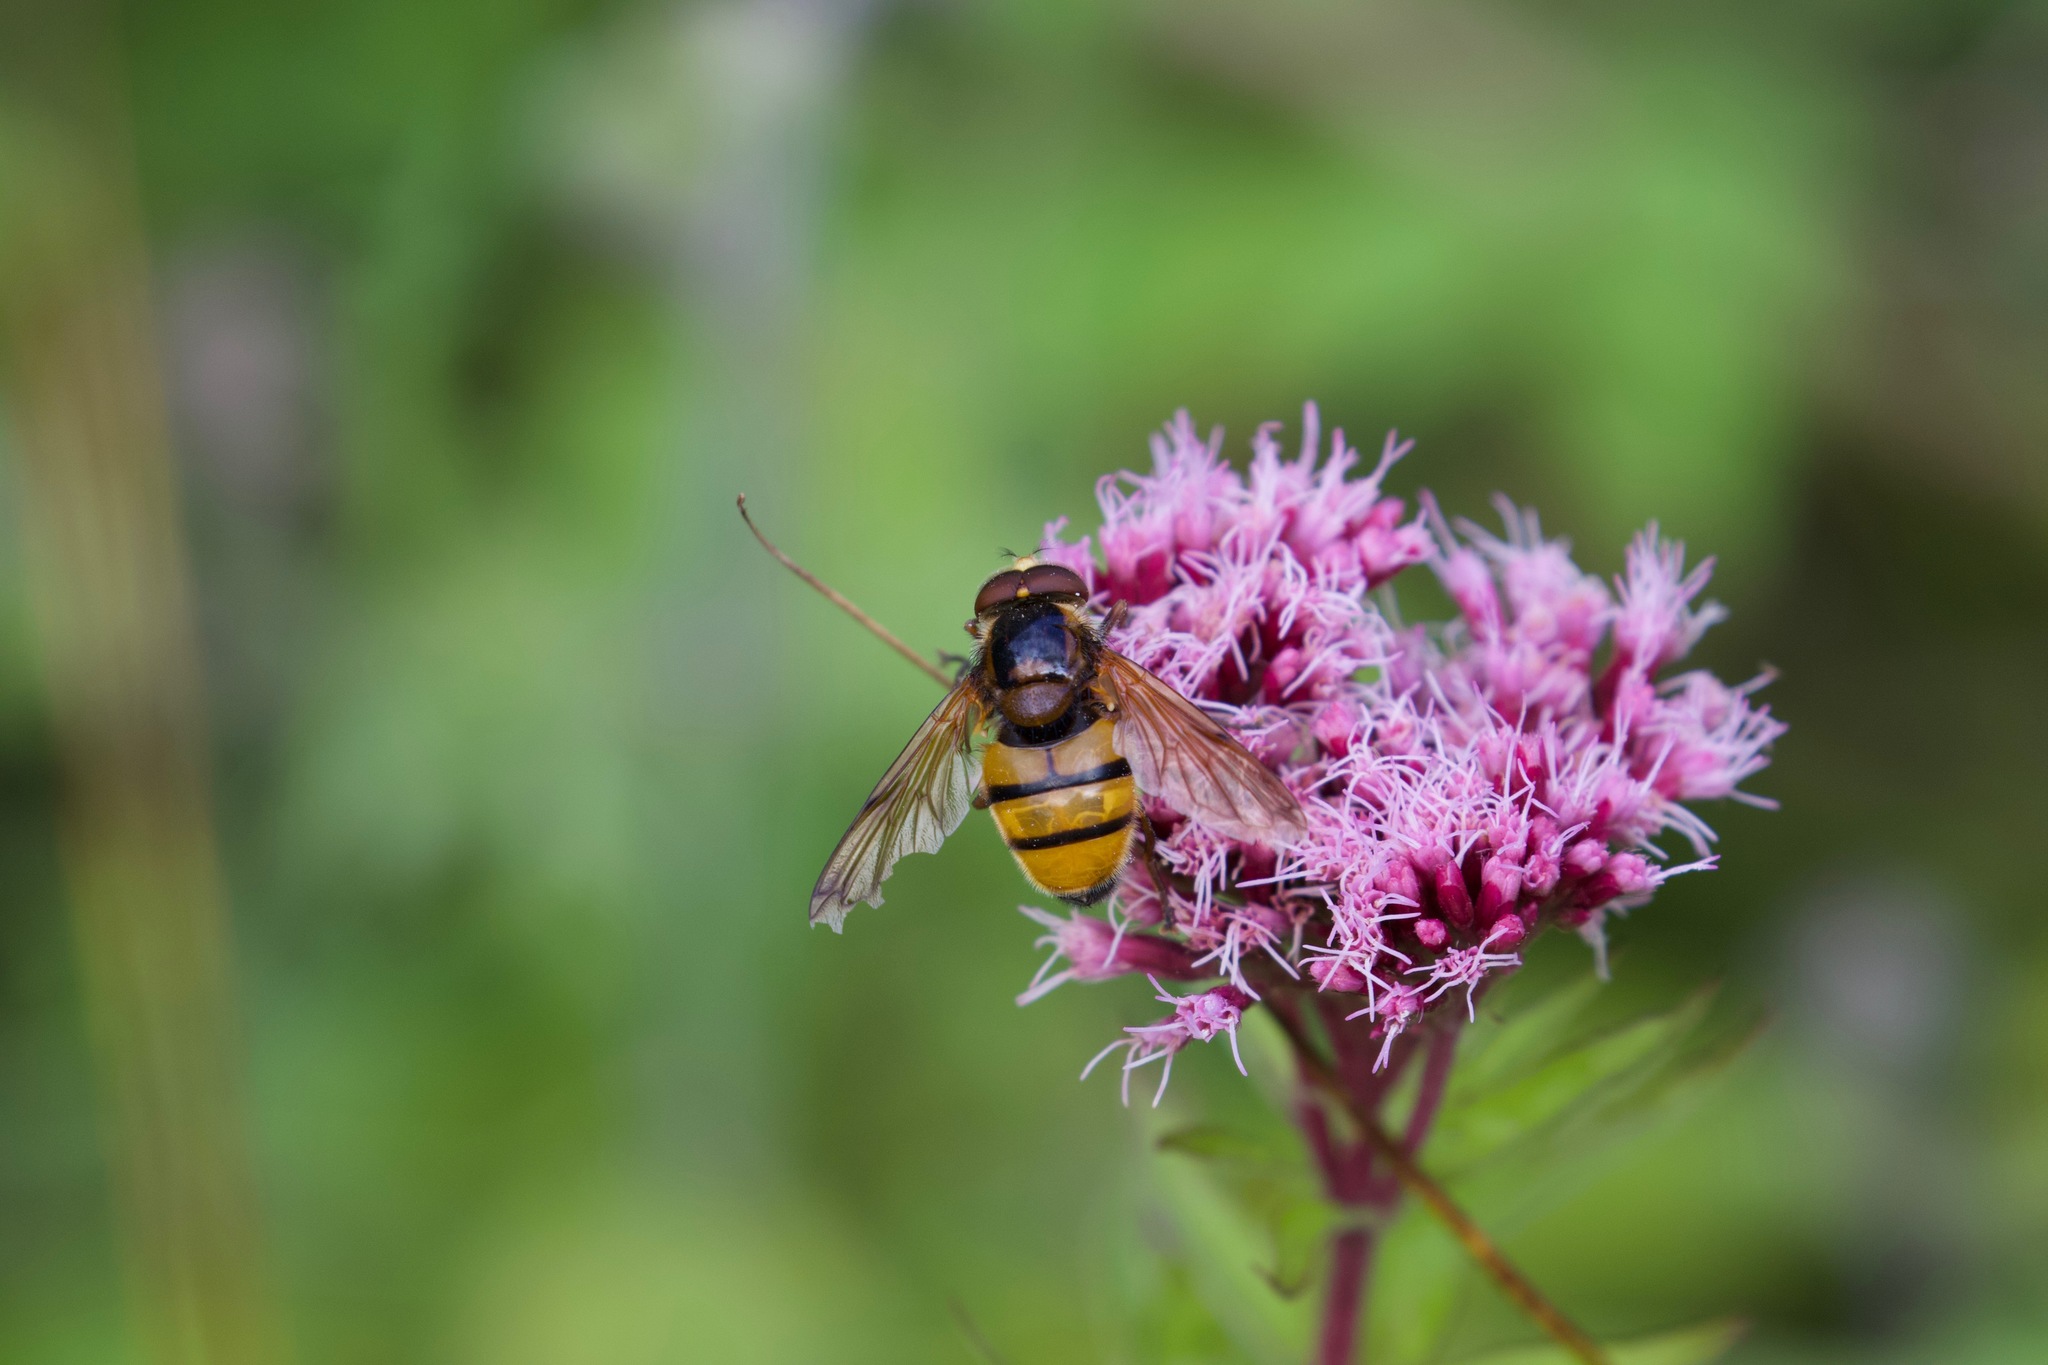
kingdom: Animalia
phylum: Arthropoda
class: Insecta
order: Diptera
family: Syrphidae
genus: Volucella
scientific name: Volucella inanis
